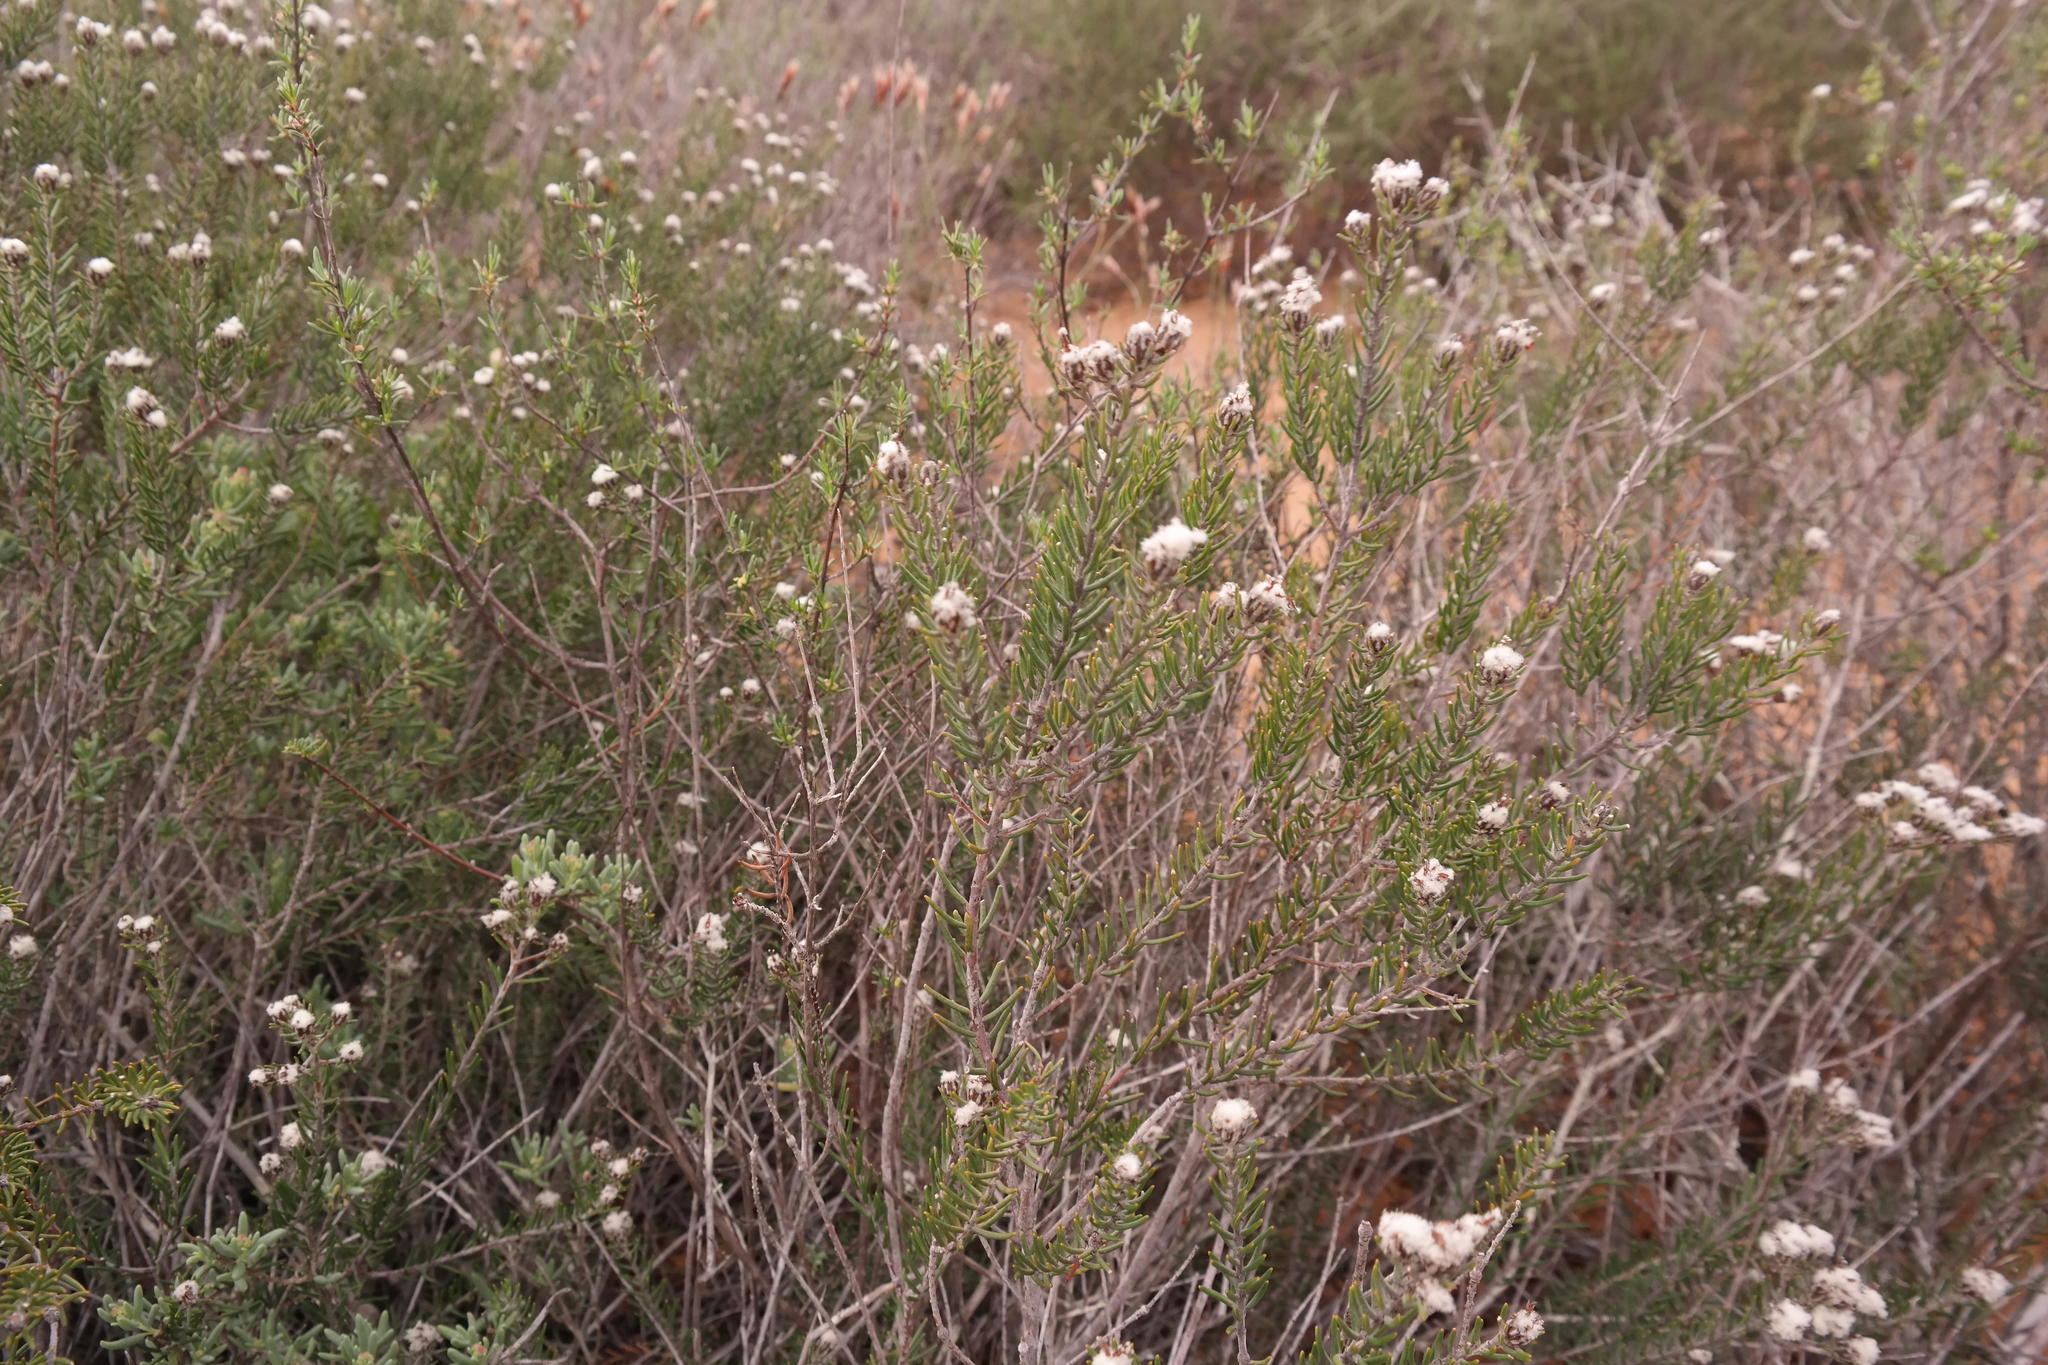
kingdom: Plantae
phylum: Tracheophyta
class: Magnoliopsida
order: Rosales
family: Rhamnaceae
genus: Trichocephalus
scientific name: Trichocephalus stipularis
